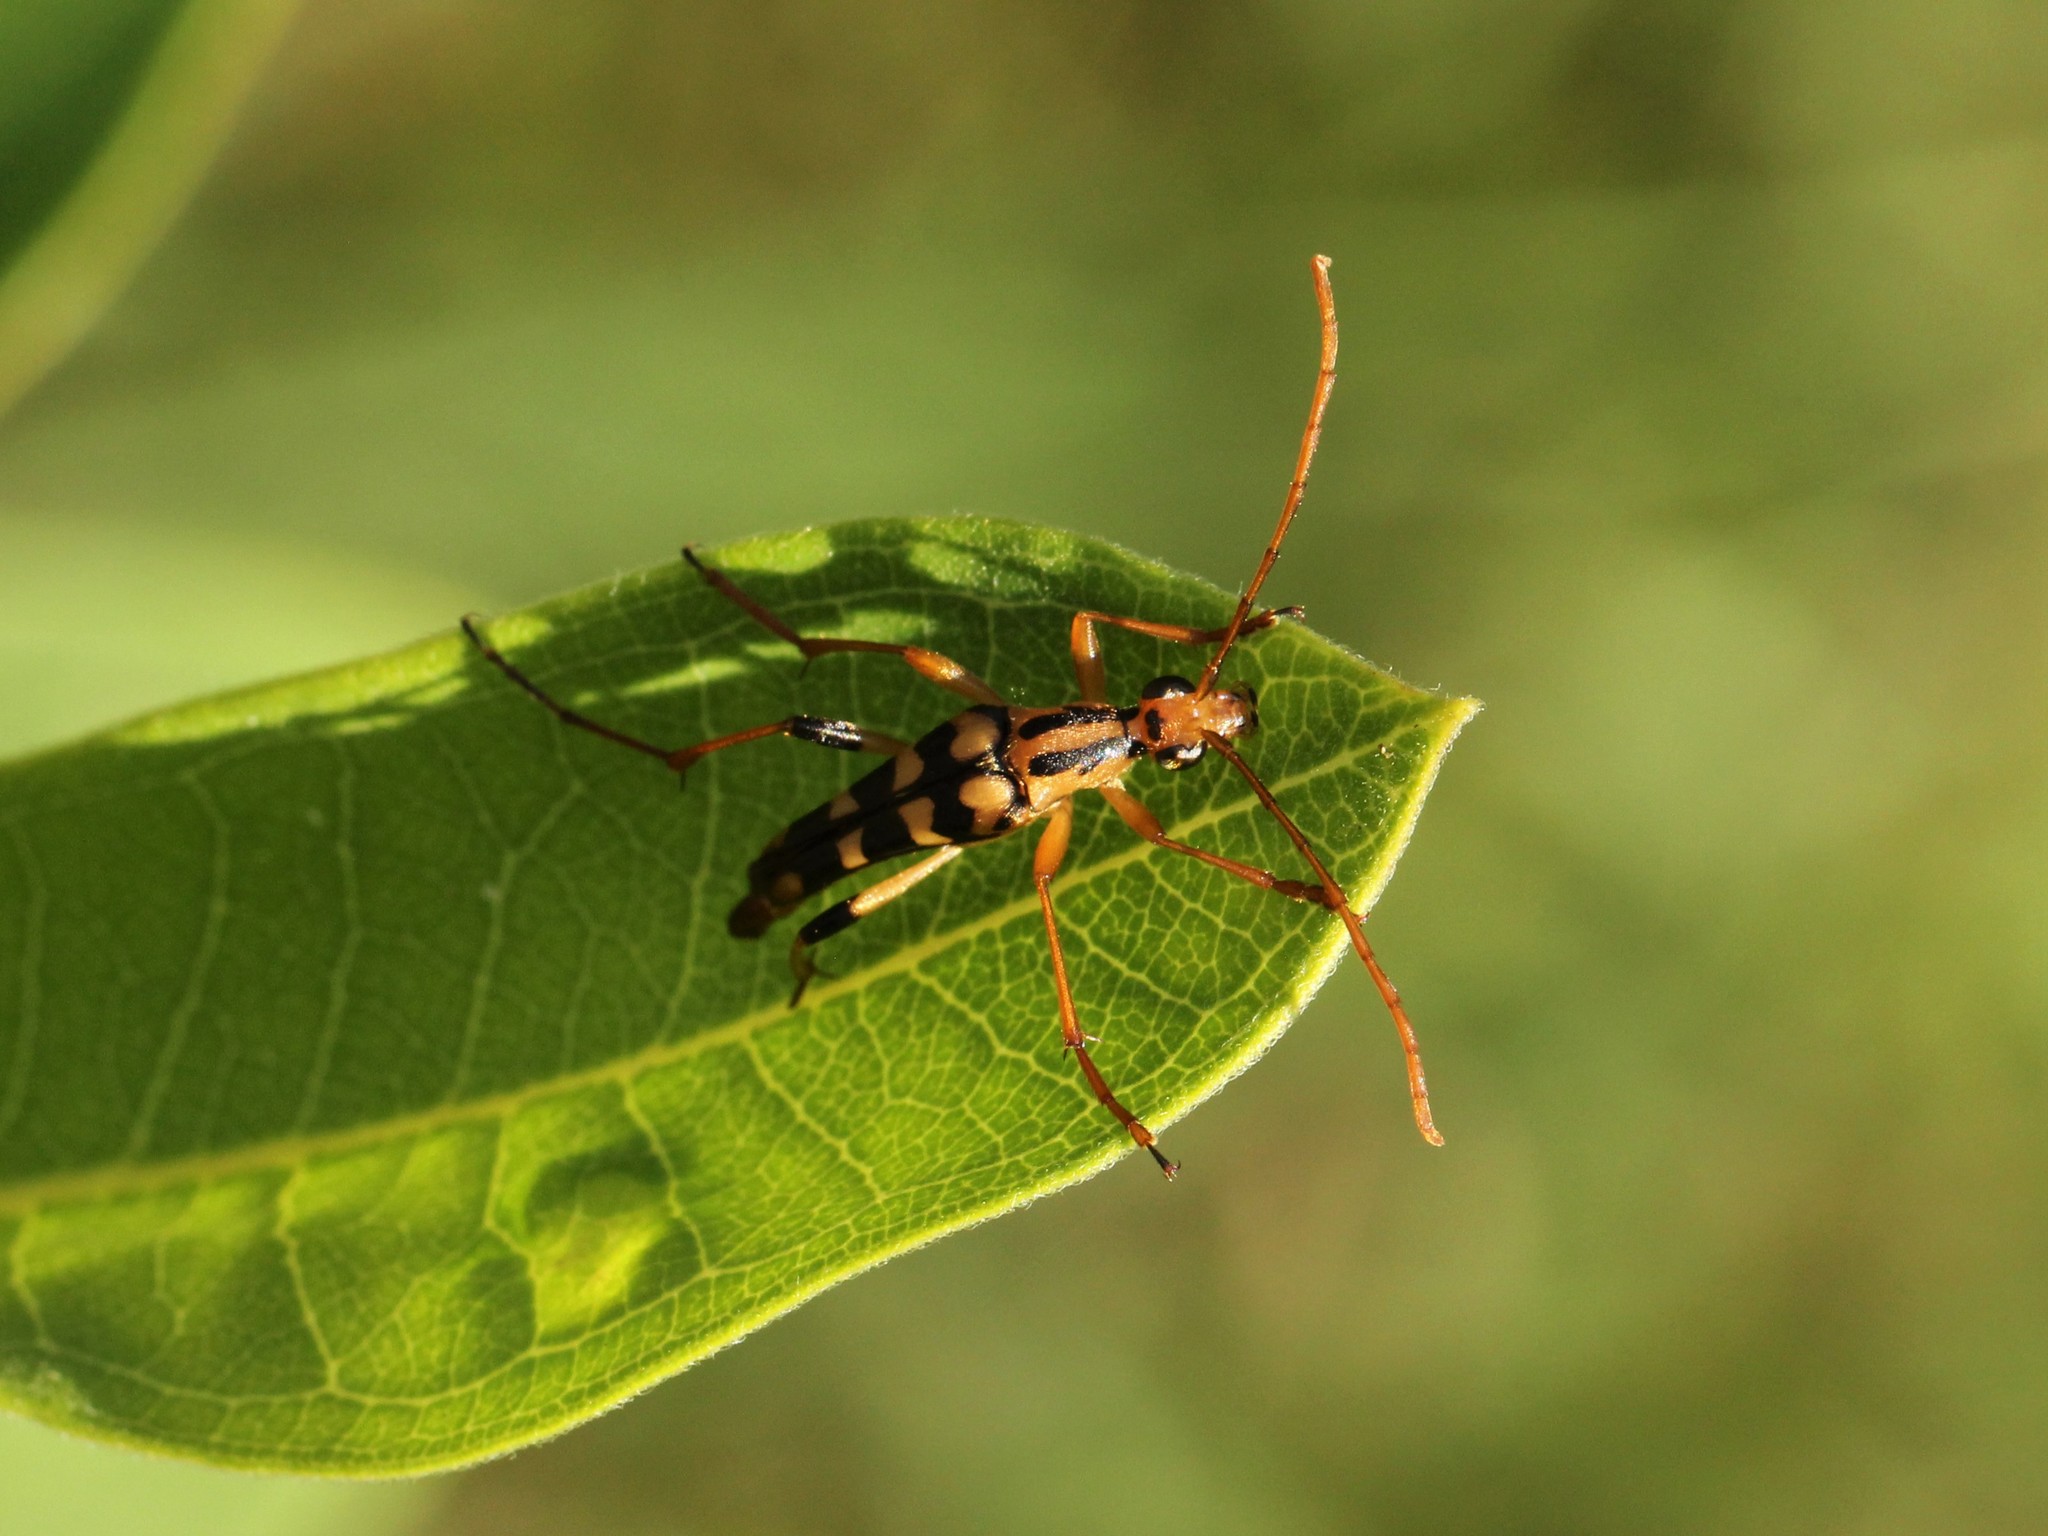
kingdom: Animalia
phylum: Arthropoda
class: Insecta
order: Coleoptera
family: Cerambycidae
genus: Strangalia
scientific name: Strangalia luteicornis
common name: Yellow-horned flower longhorn beetle
